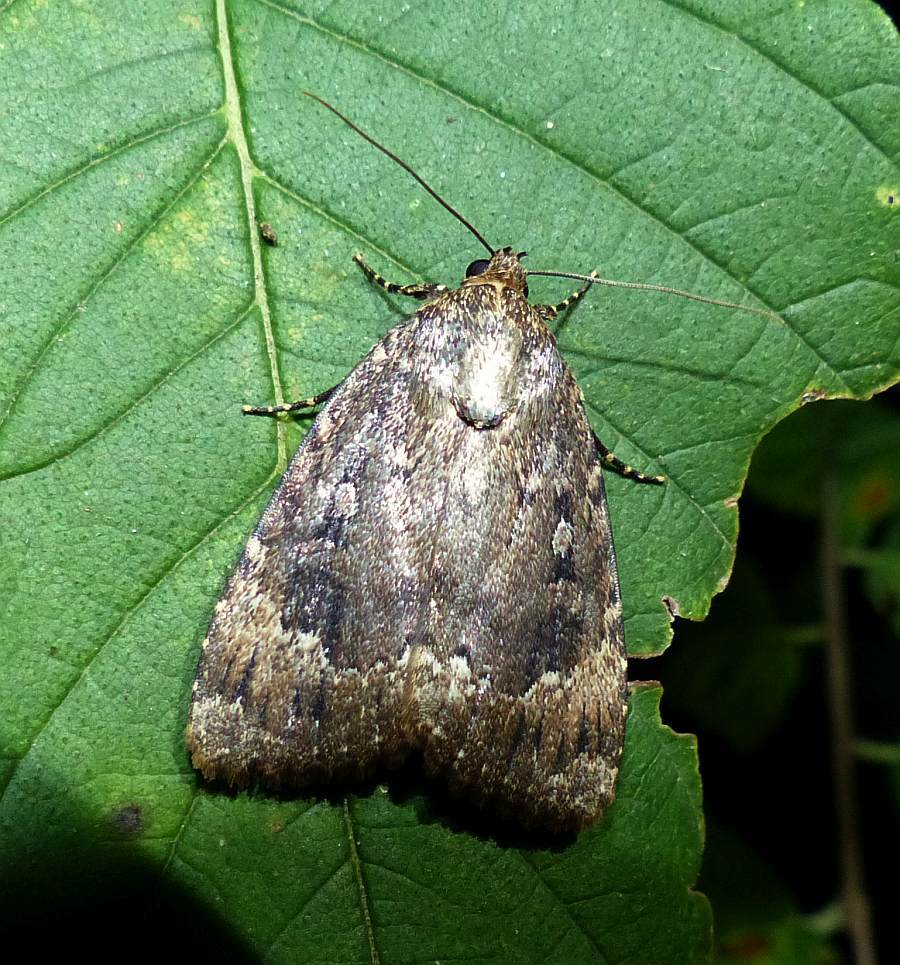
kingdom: Animalia
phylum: Arthropoda
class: Insecta
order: Lepidoptera
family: Noctuidae
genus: Amphipyra
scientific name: Amphipyra pyramidoides
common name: American copper underwing
